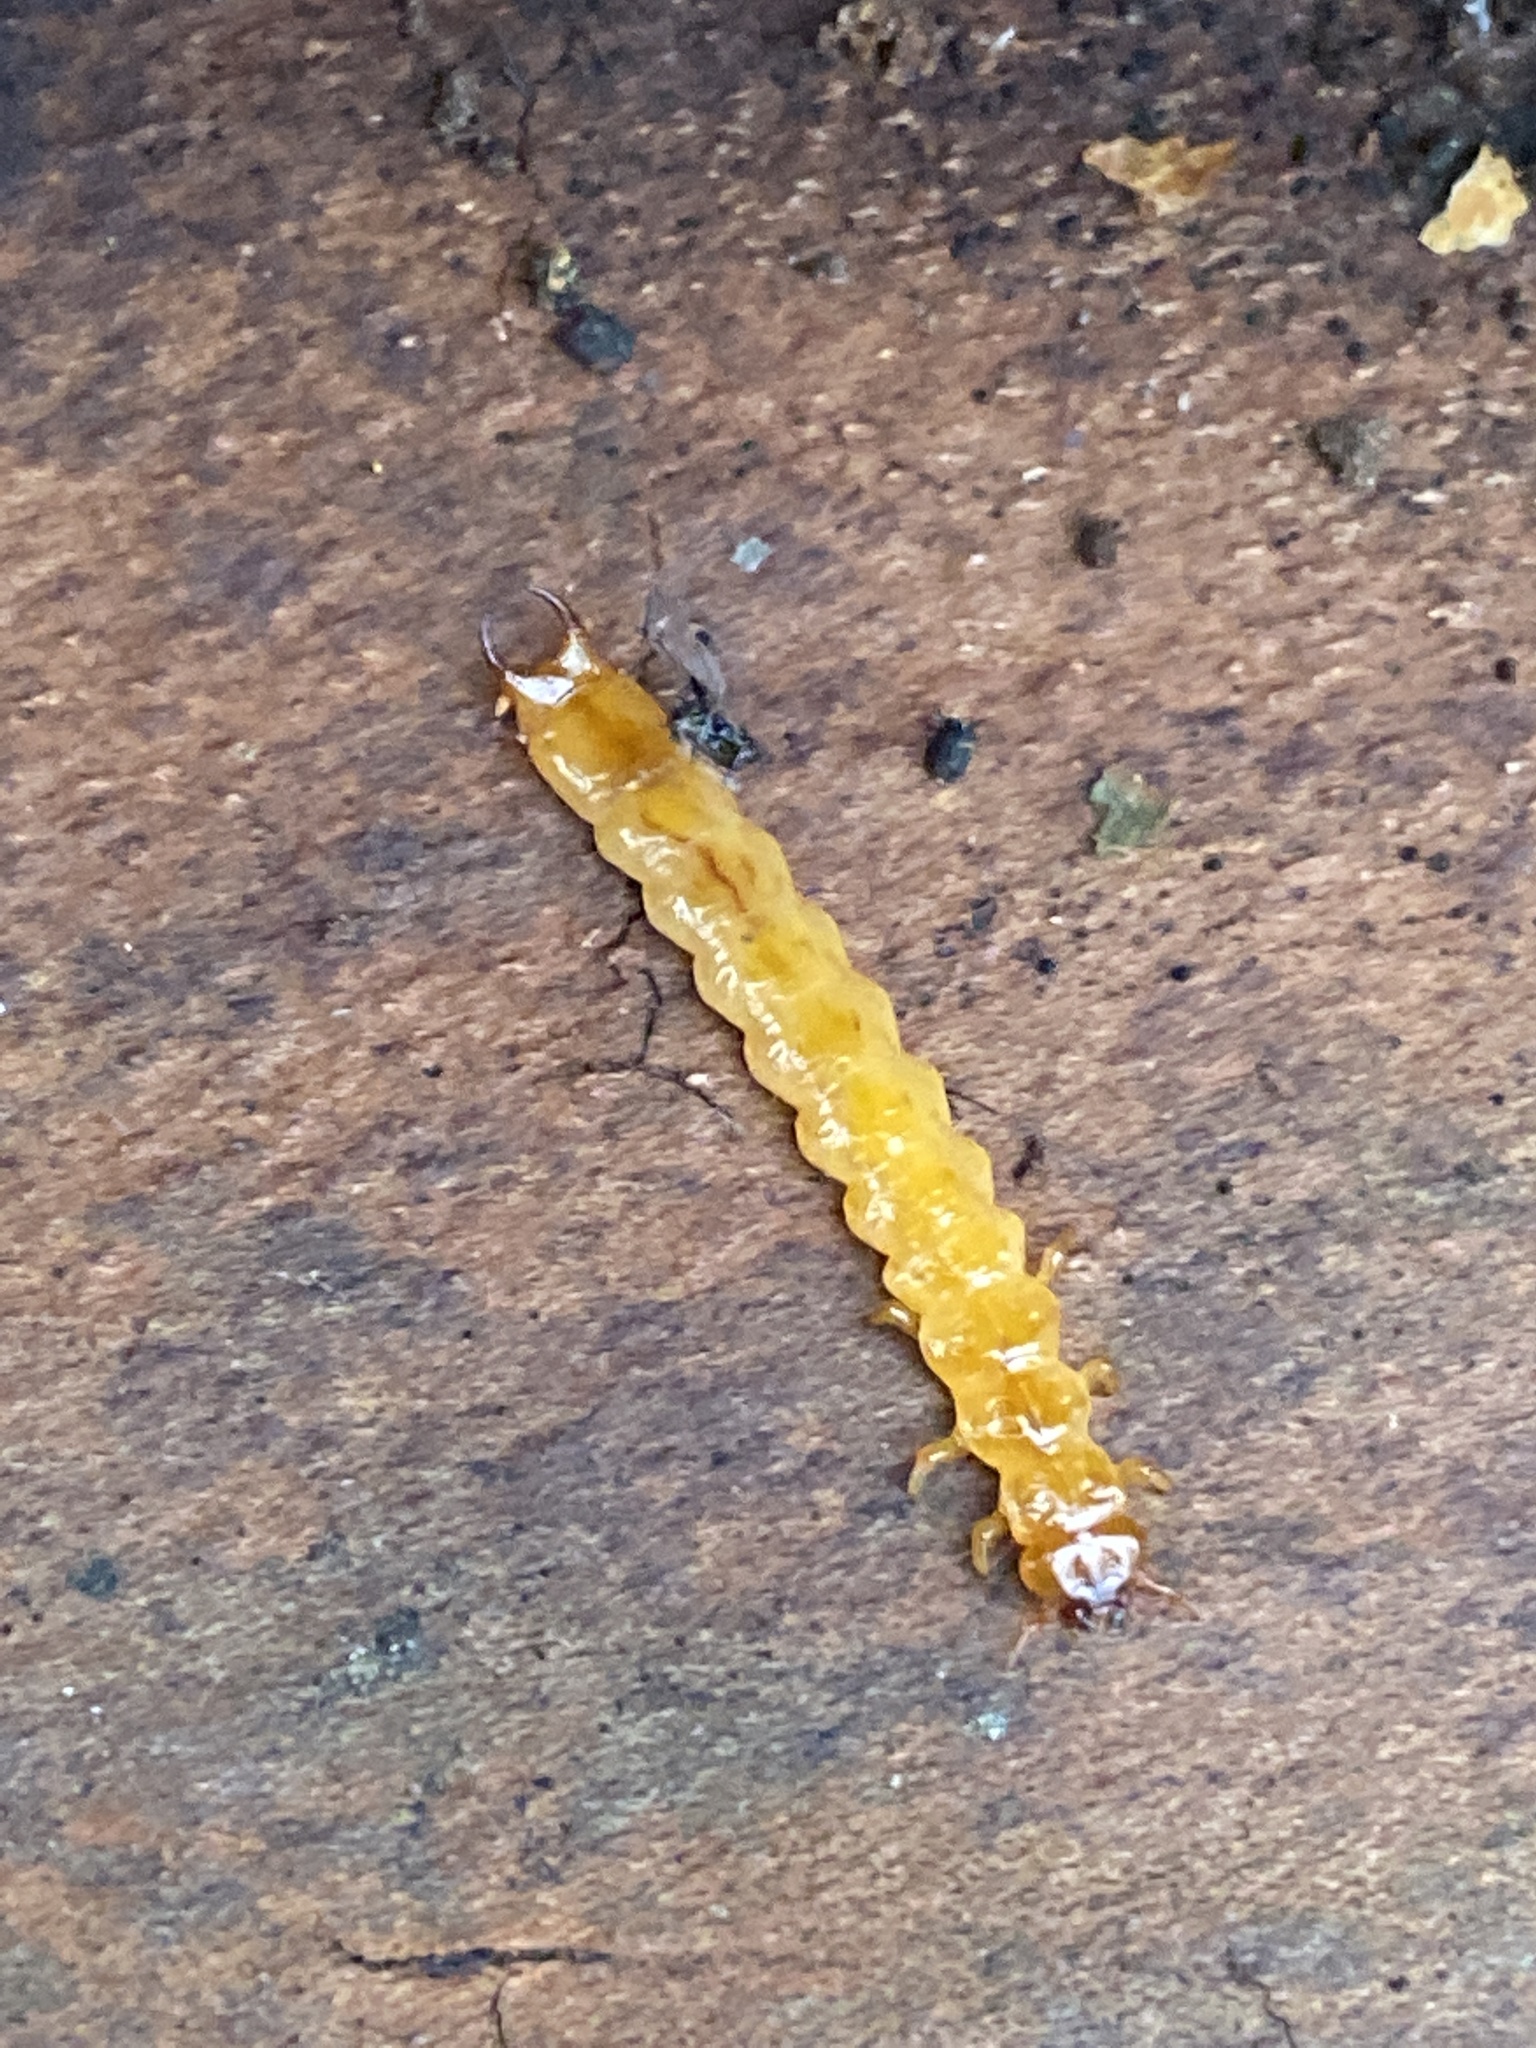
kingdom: Animalia
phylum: Arthropoda
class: Insecta
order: Coleoptera
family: Pyrochroidae
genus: Schizotus
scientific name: Schizotus pectinicornis
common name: Scarce cardinal beetle
